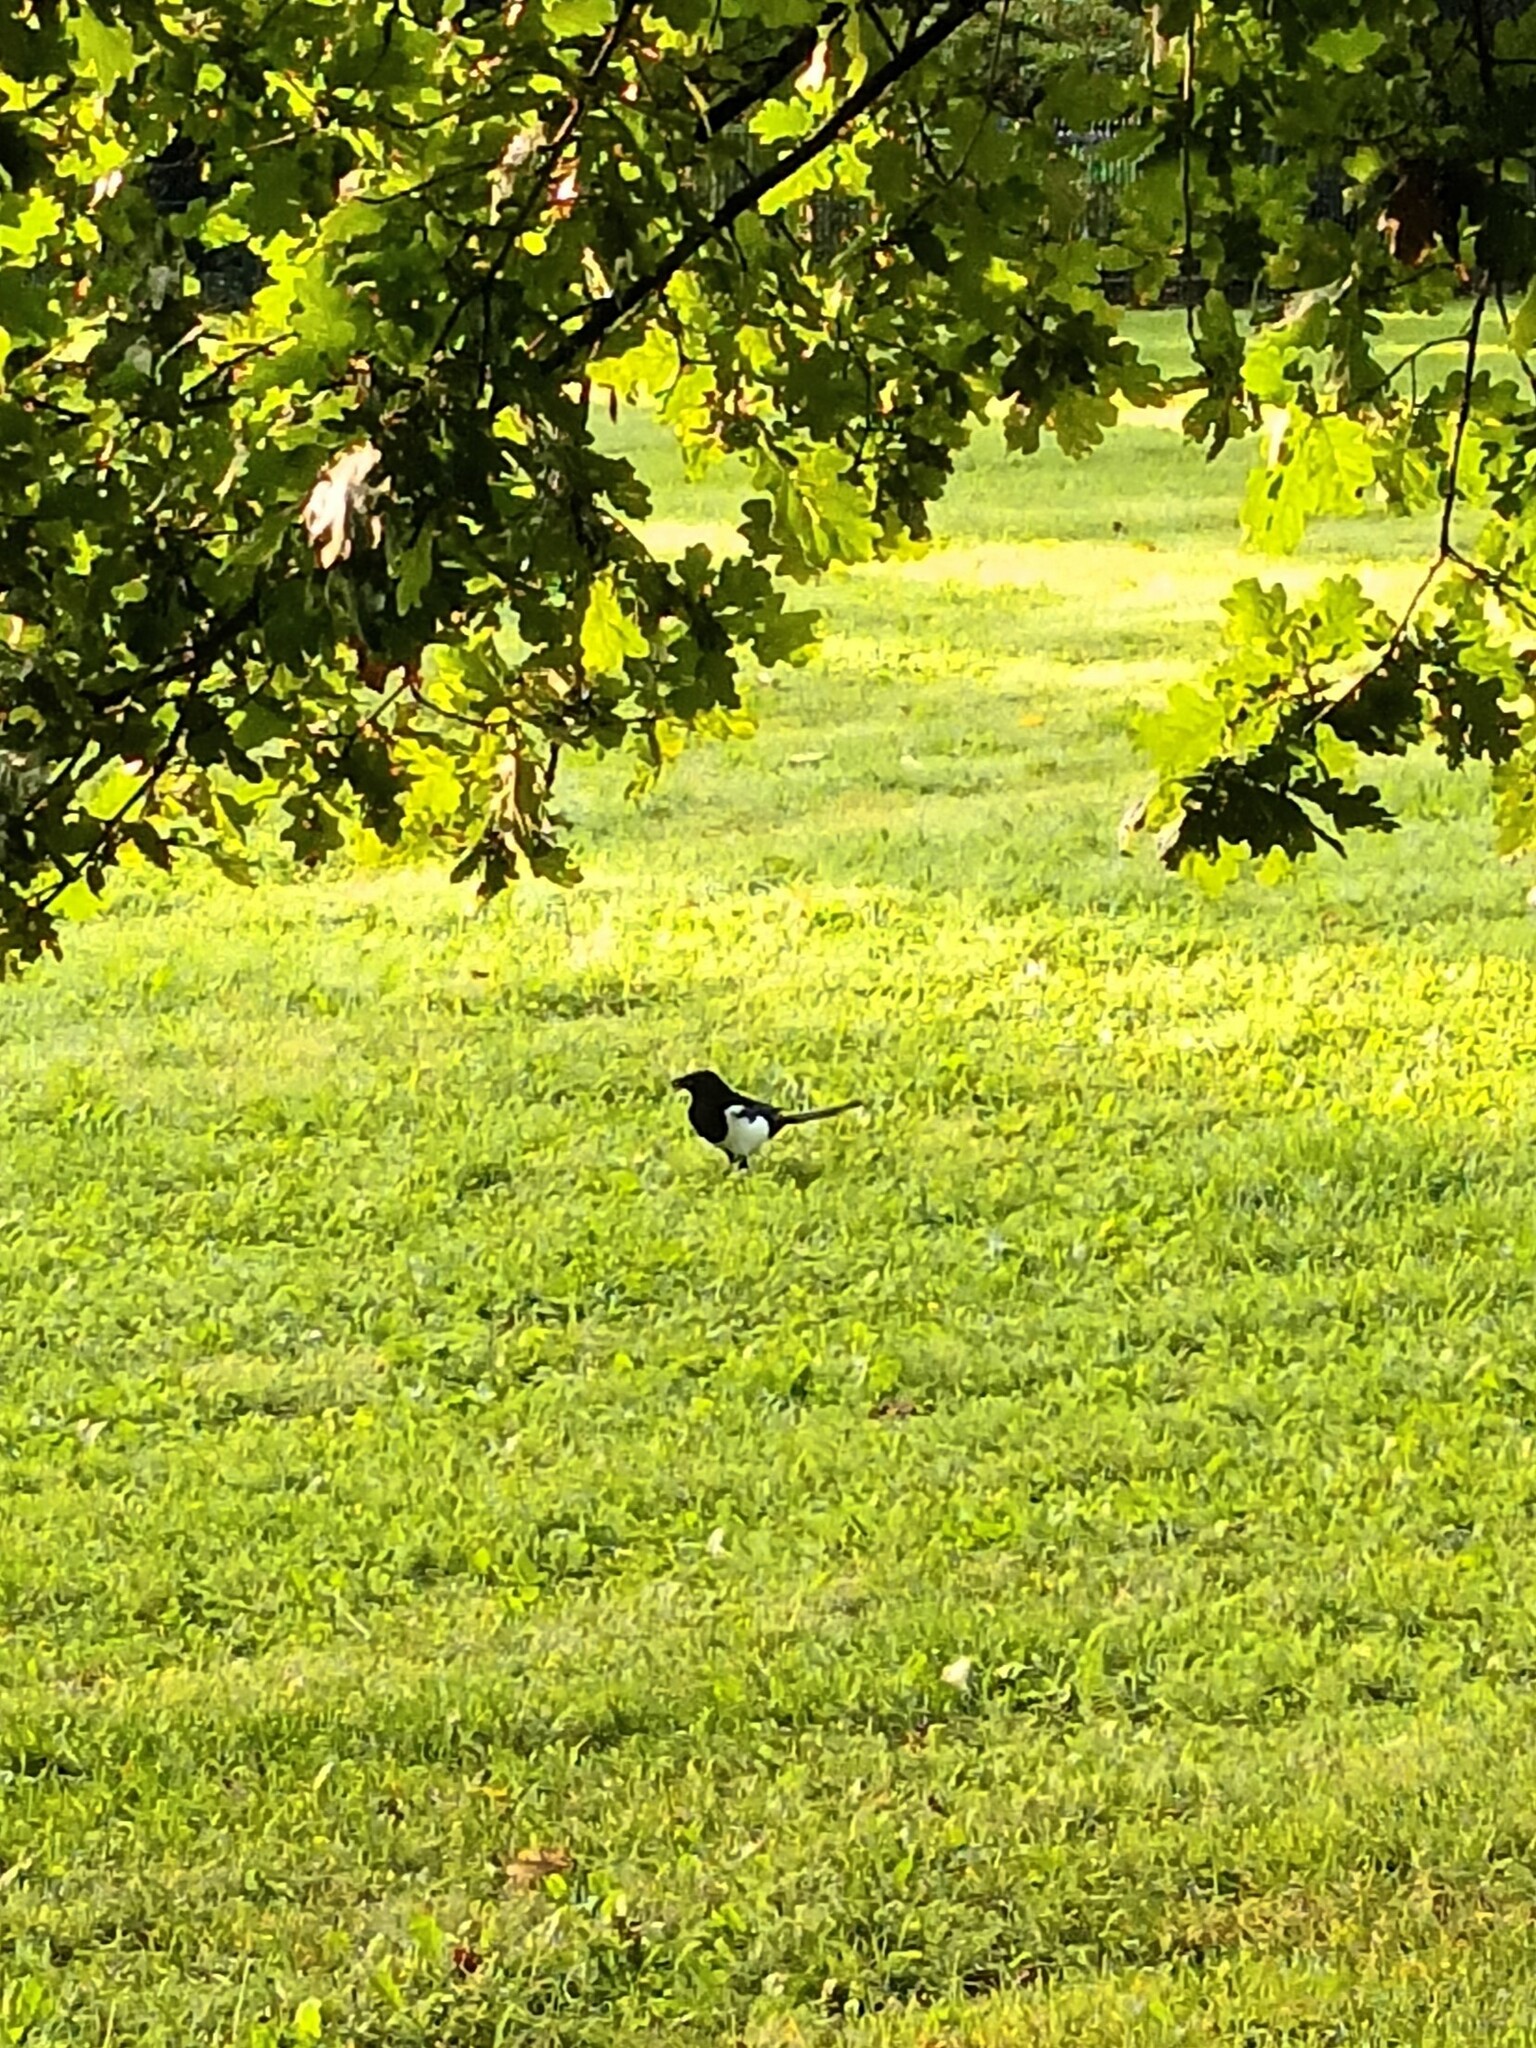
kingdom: Animalia
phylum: Chordata
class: Aves
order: Passeriformes
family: Corvidae
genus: Pica
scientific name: Pica pica
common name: Eurasian magpie
